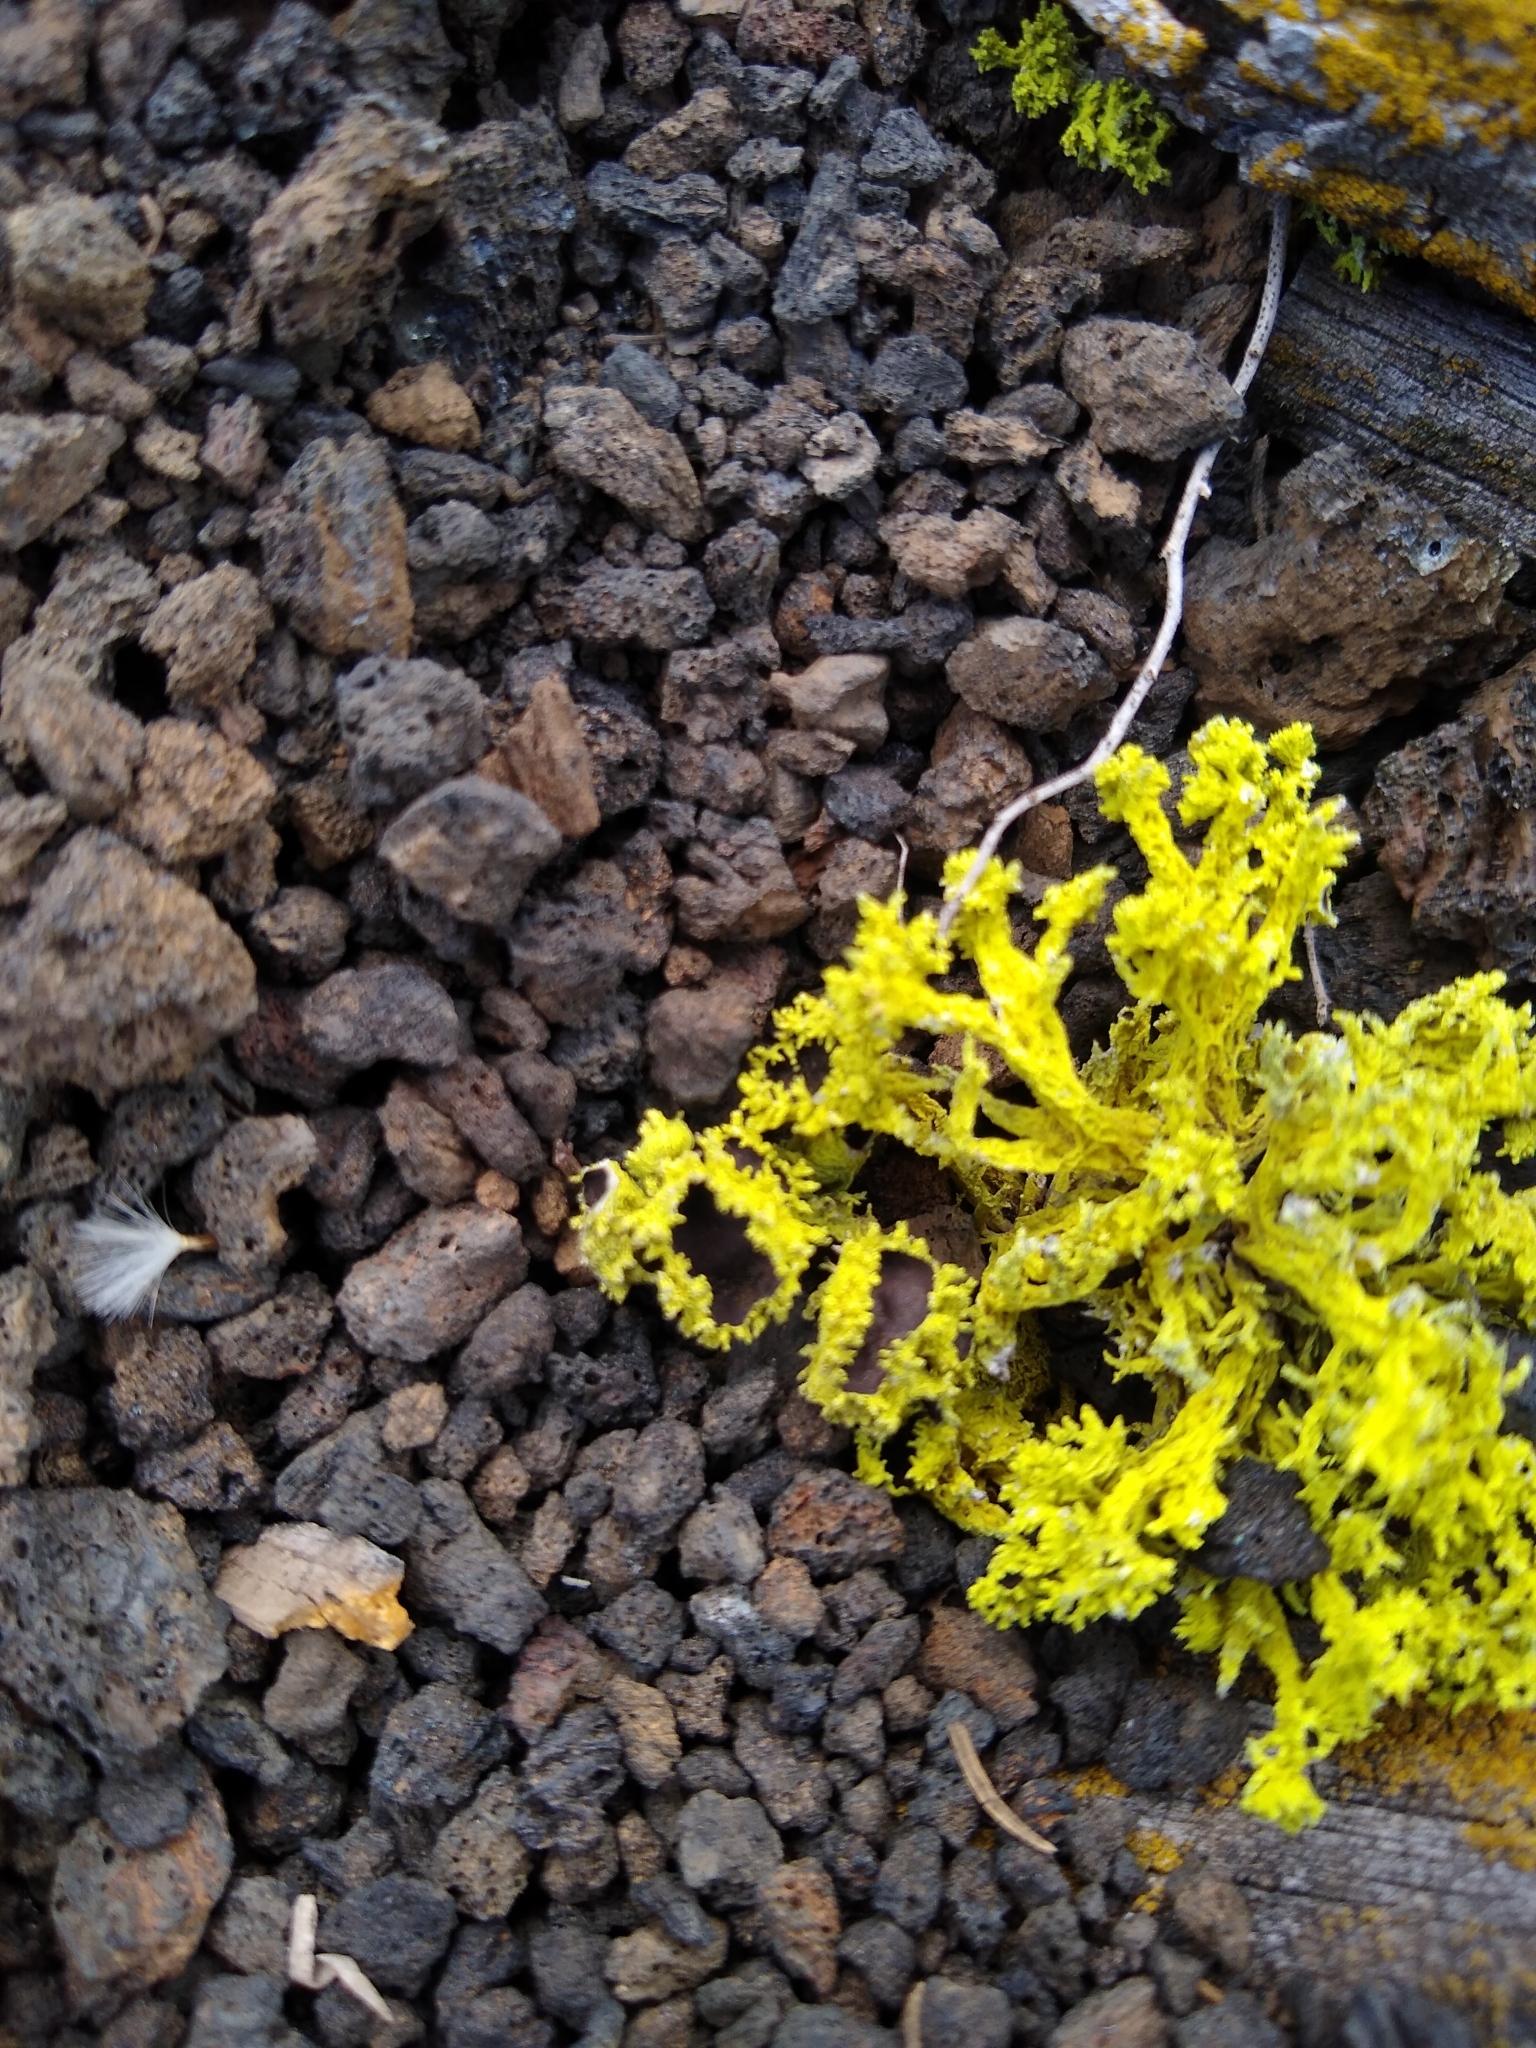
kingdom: Fungi
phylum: Ascomycota
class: Lecanoromycetes
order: Lecanorales
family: Parmeliaceae
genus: Letharia
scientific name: Letharia columbiana
